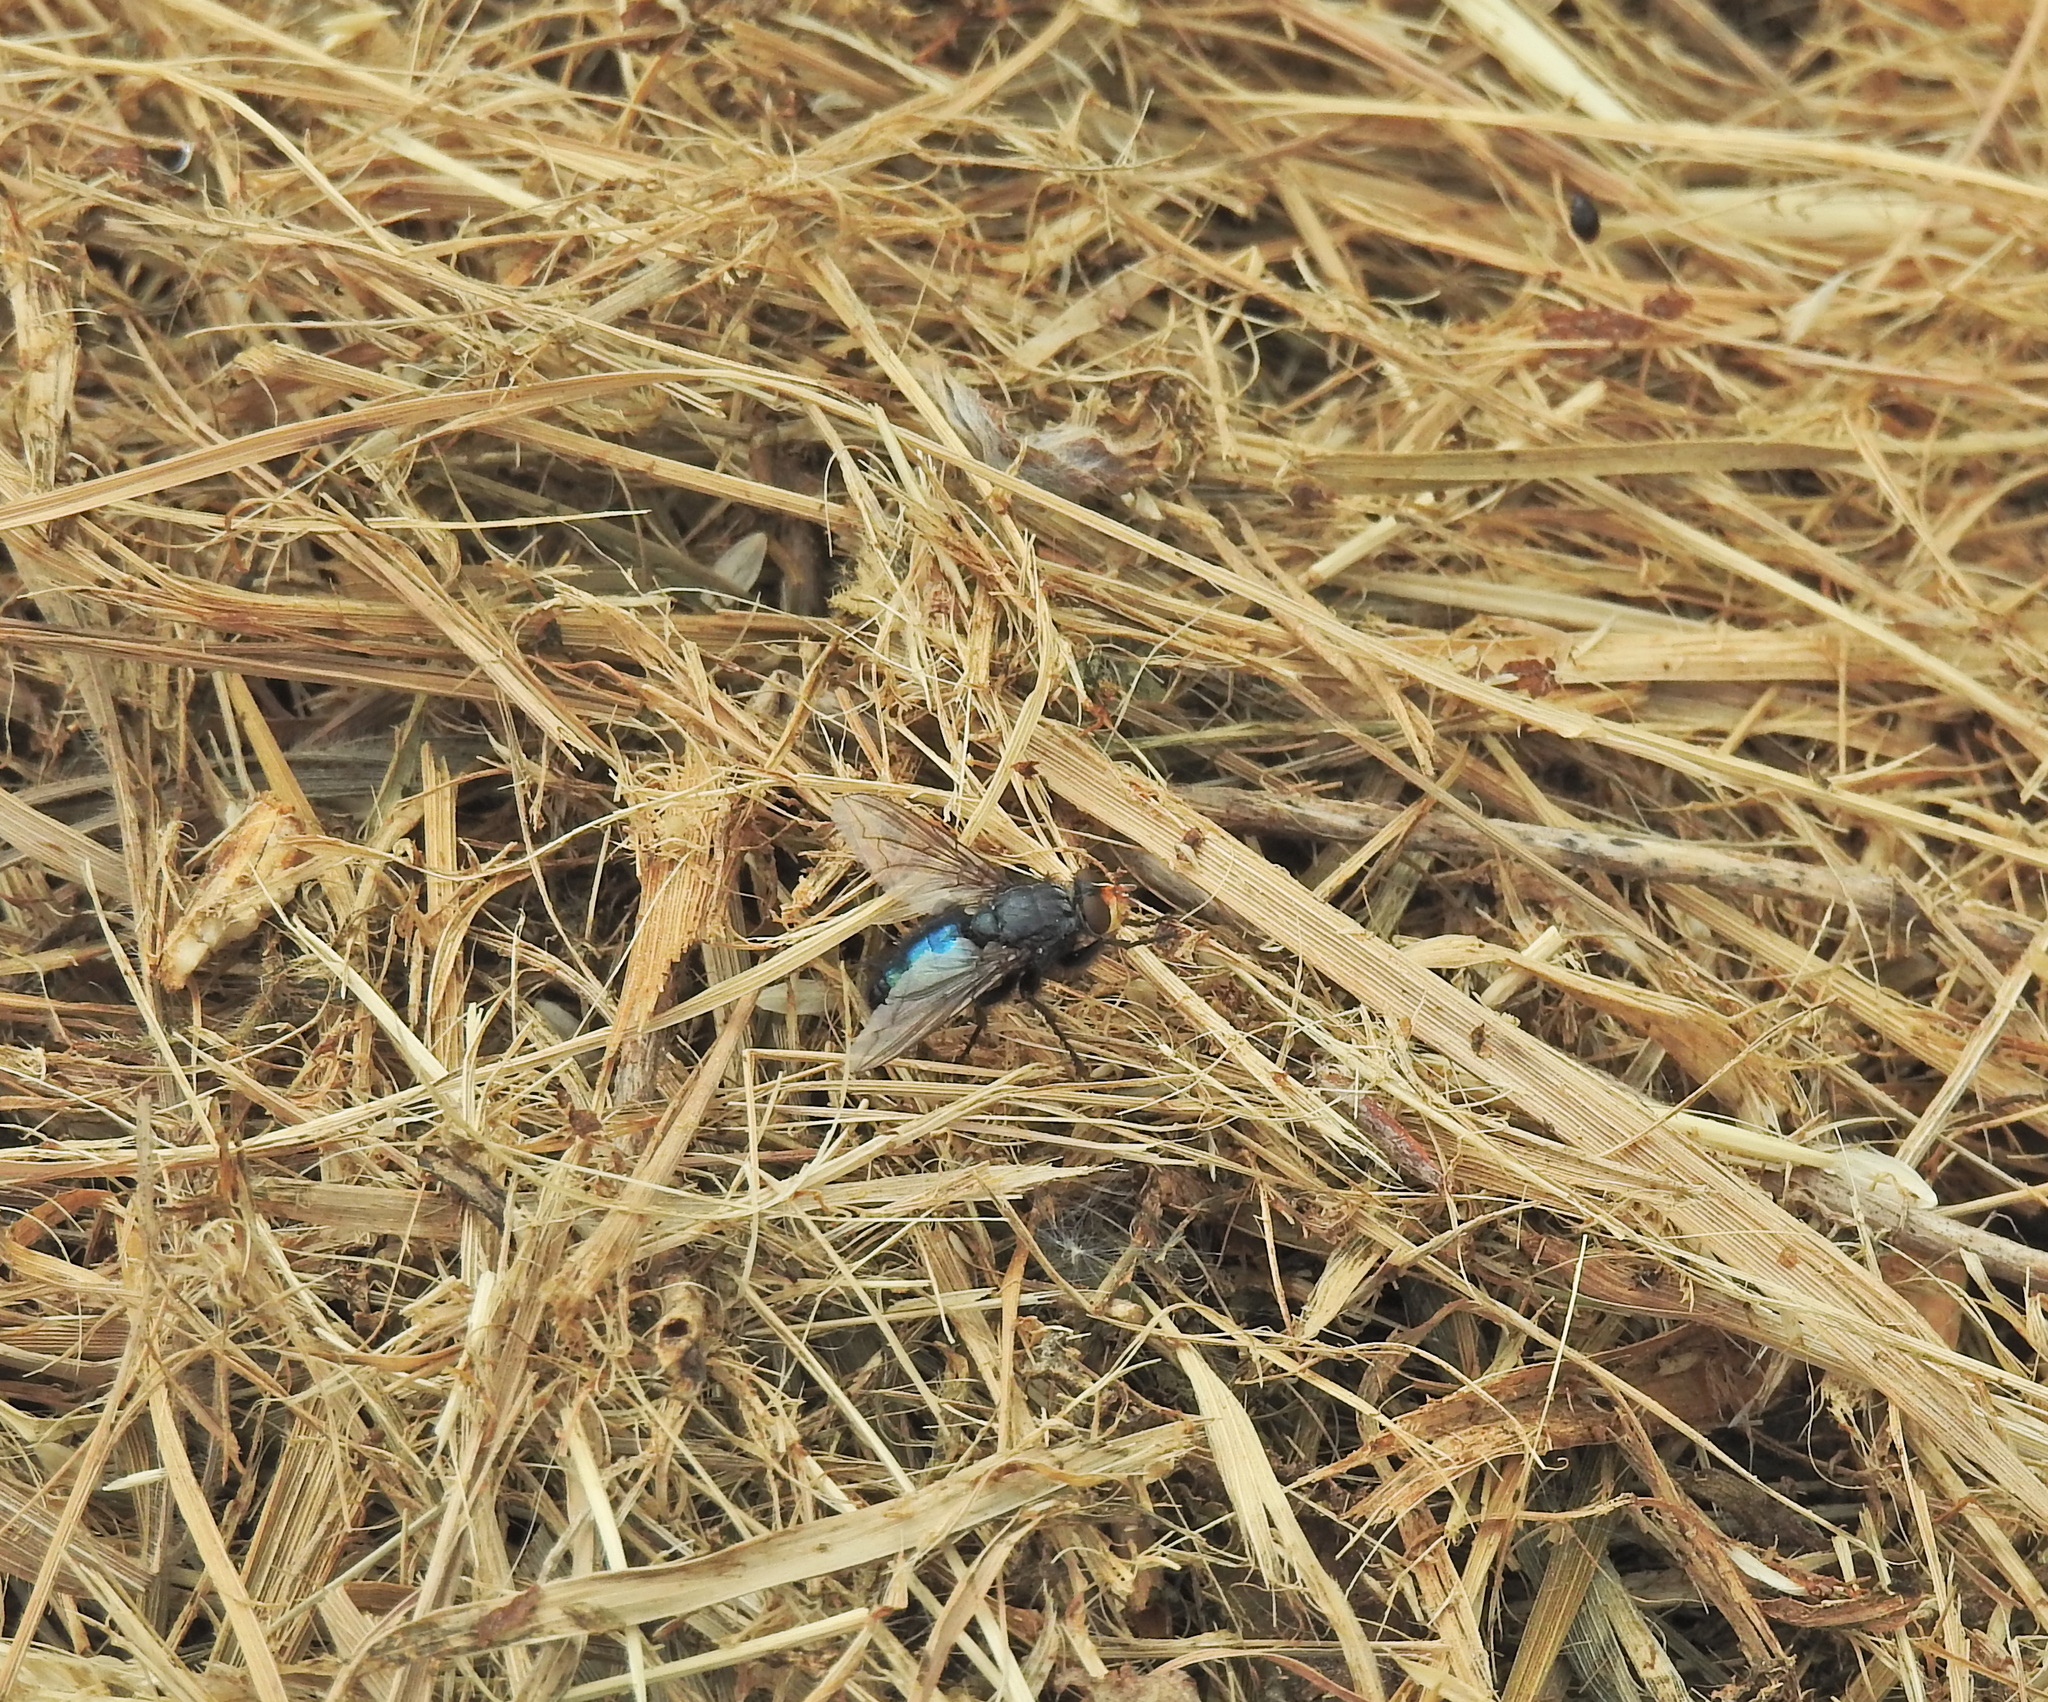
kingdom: Animalia
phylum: Arthropoda
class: Insecta
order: Diptera
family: Calliphoridae
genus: Cynomya
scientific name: Cynomya mortuorum
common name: Bluebottle blow fly
